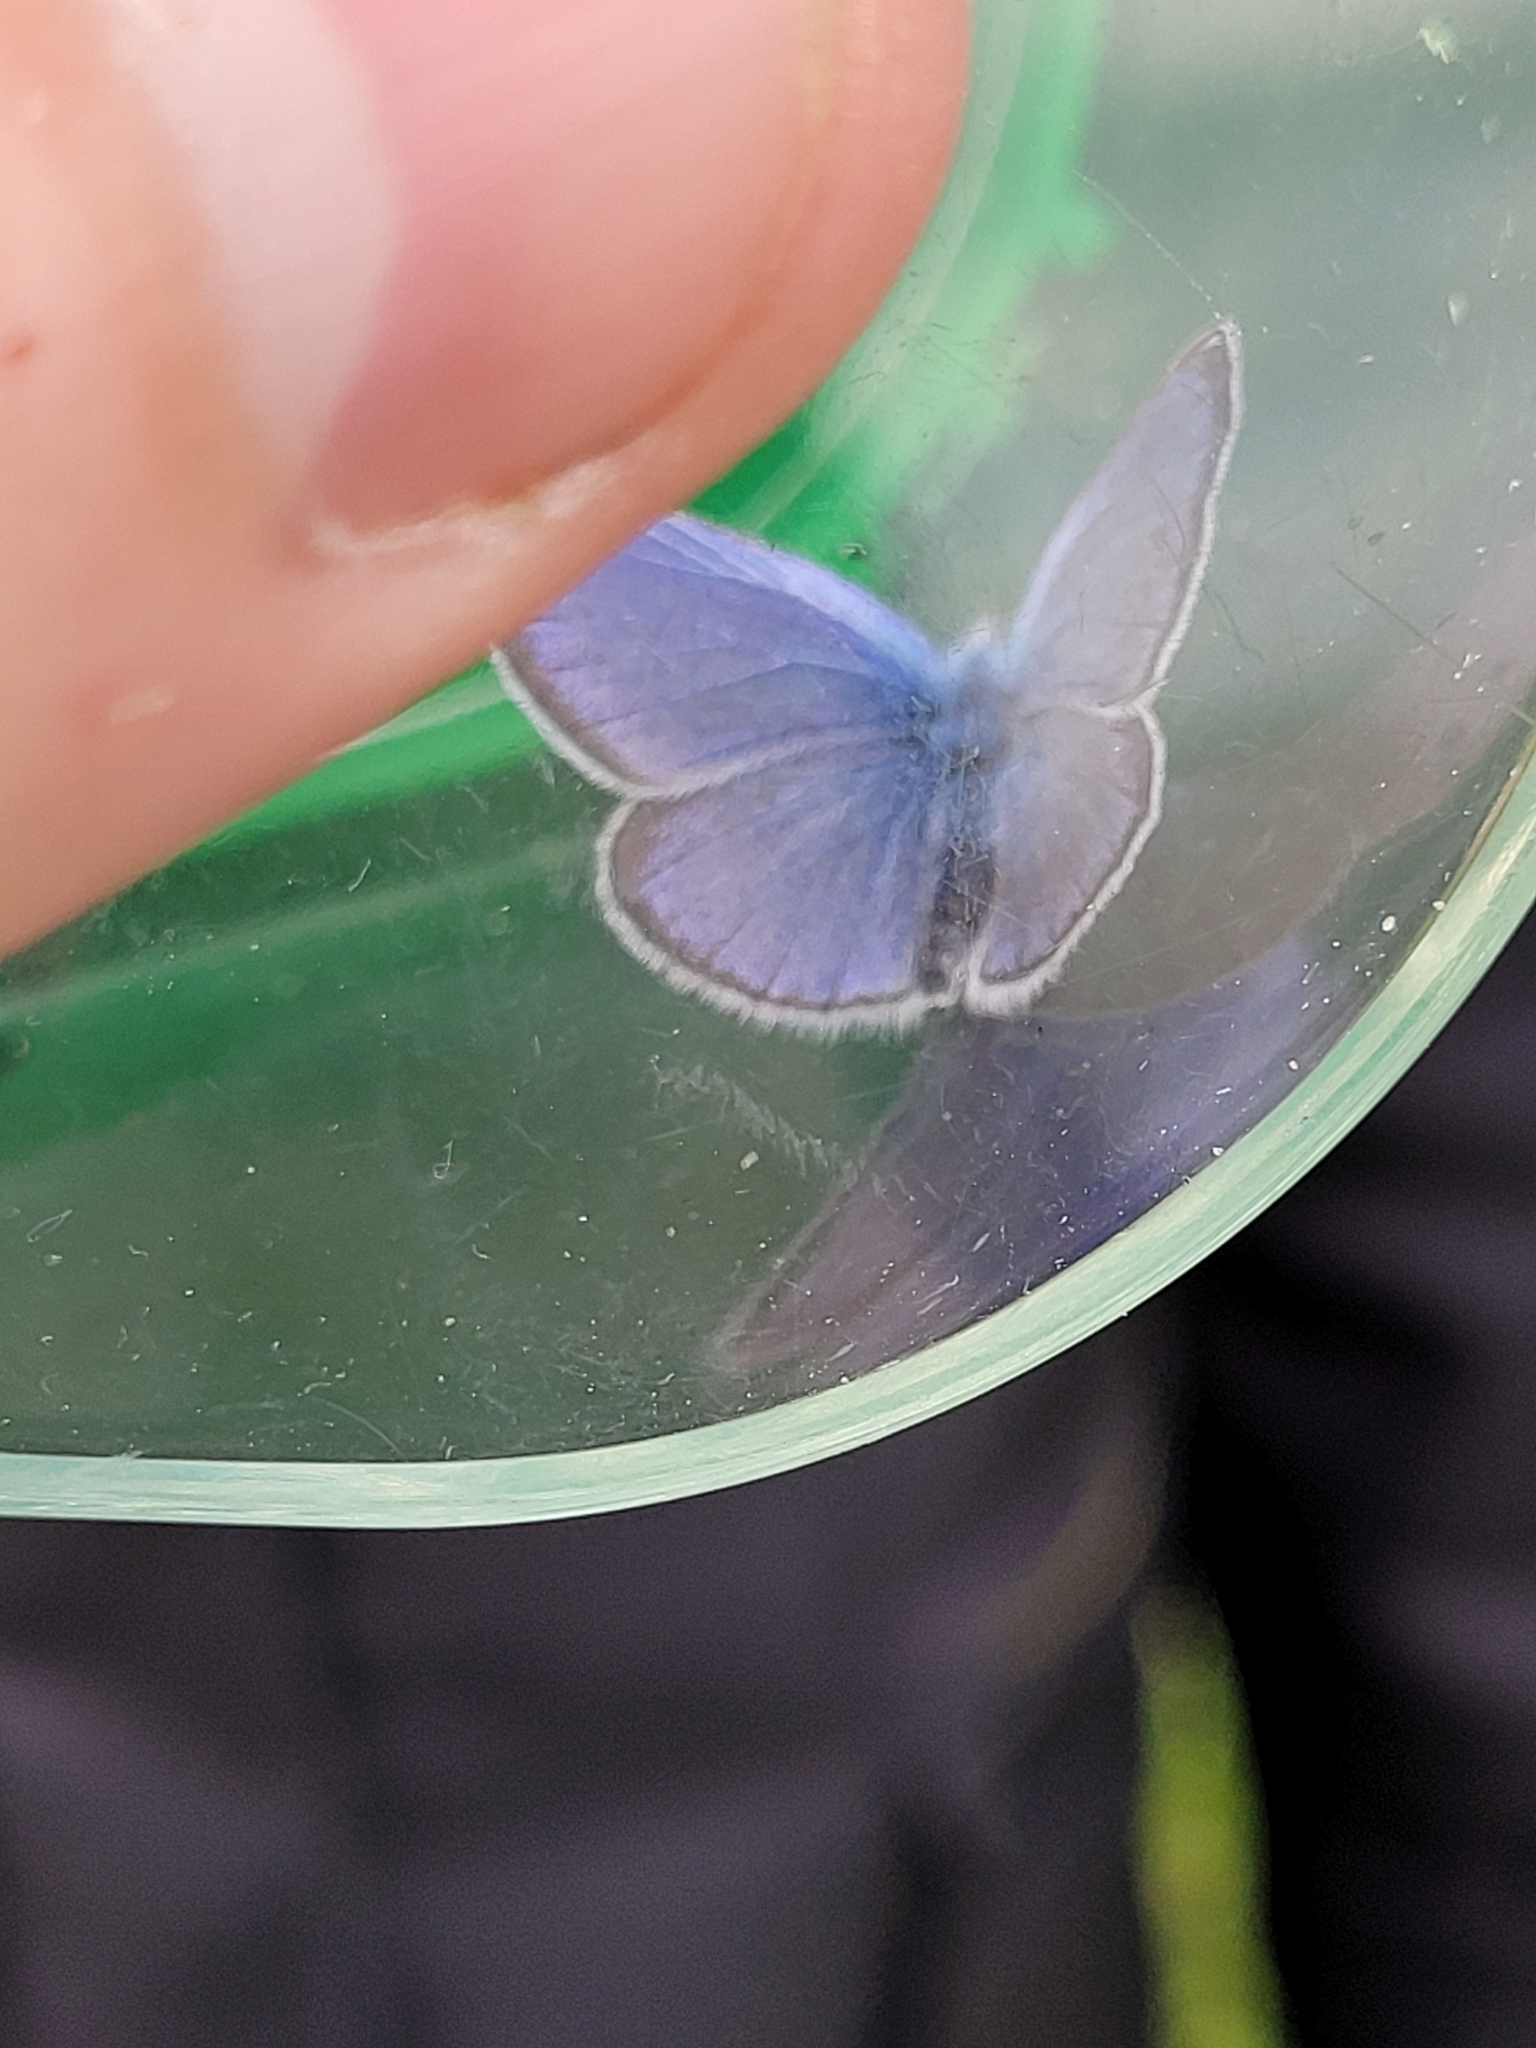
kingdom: Animalia
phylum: Arthropoda
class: Insecta
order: Lepidoptera
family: Lycaenidae
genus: Glaucopsyche
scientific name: Glaucopsyche alexis
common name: Green-underside blue
